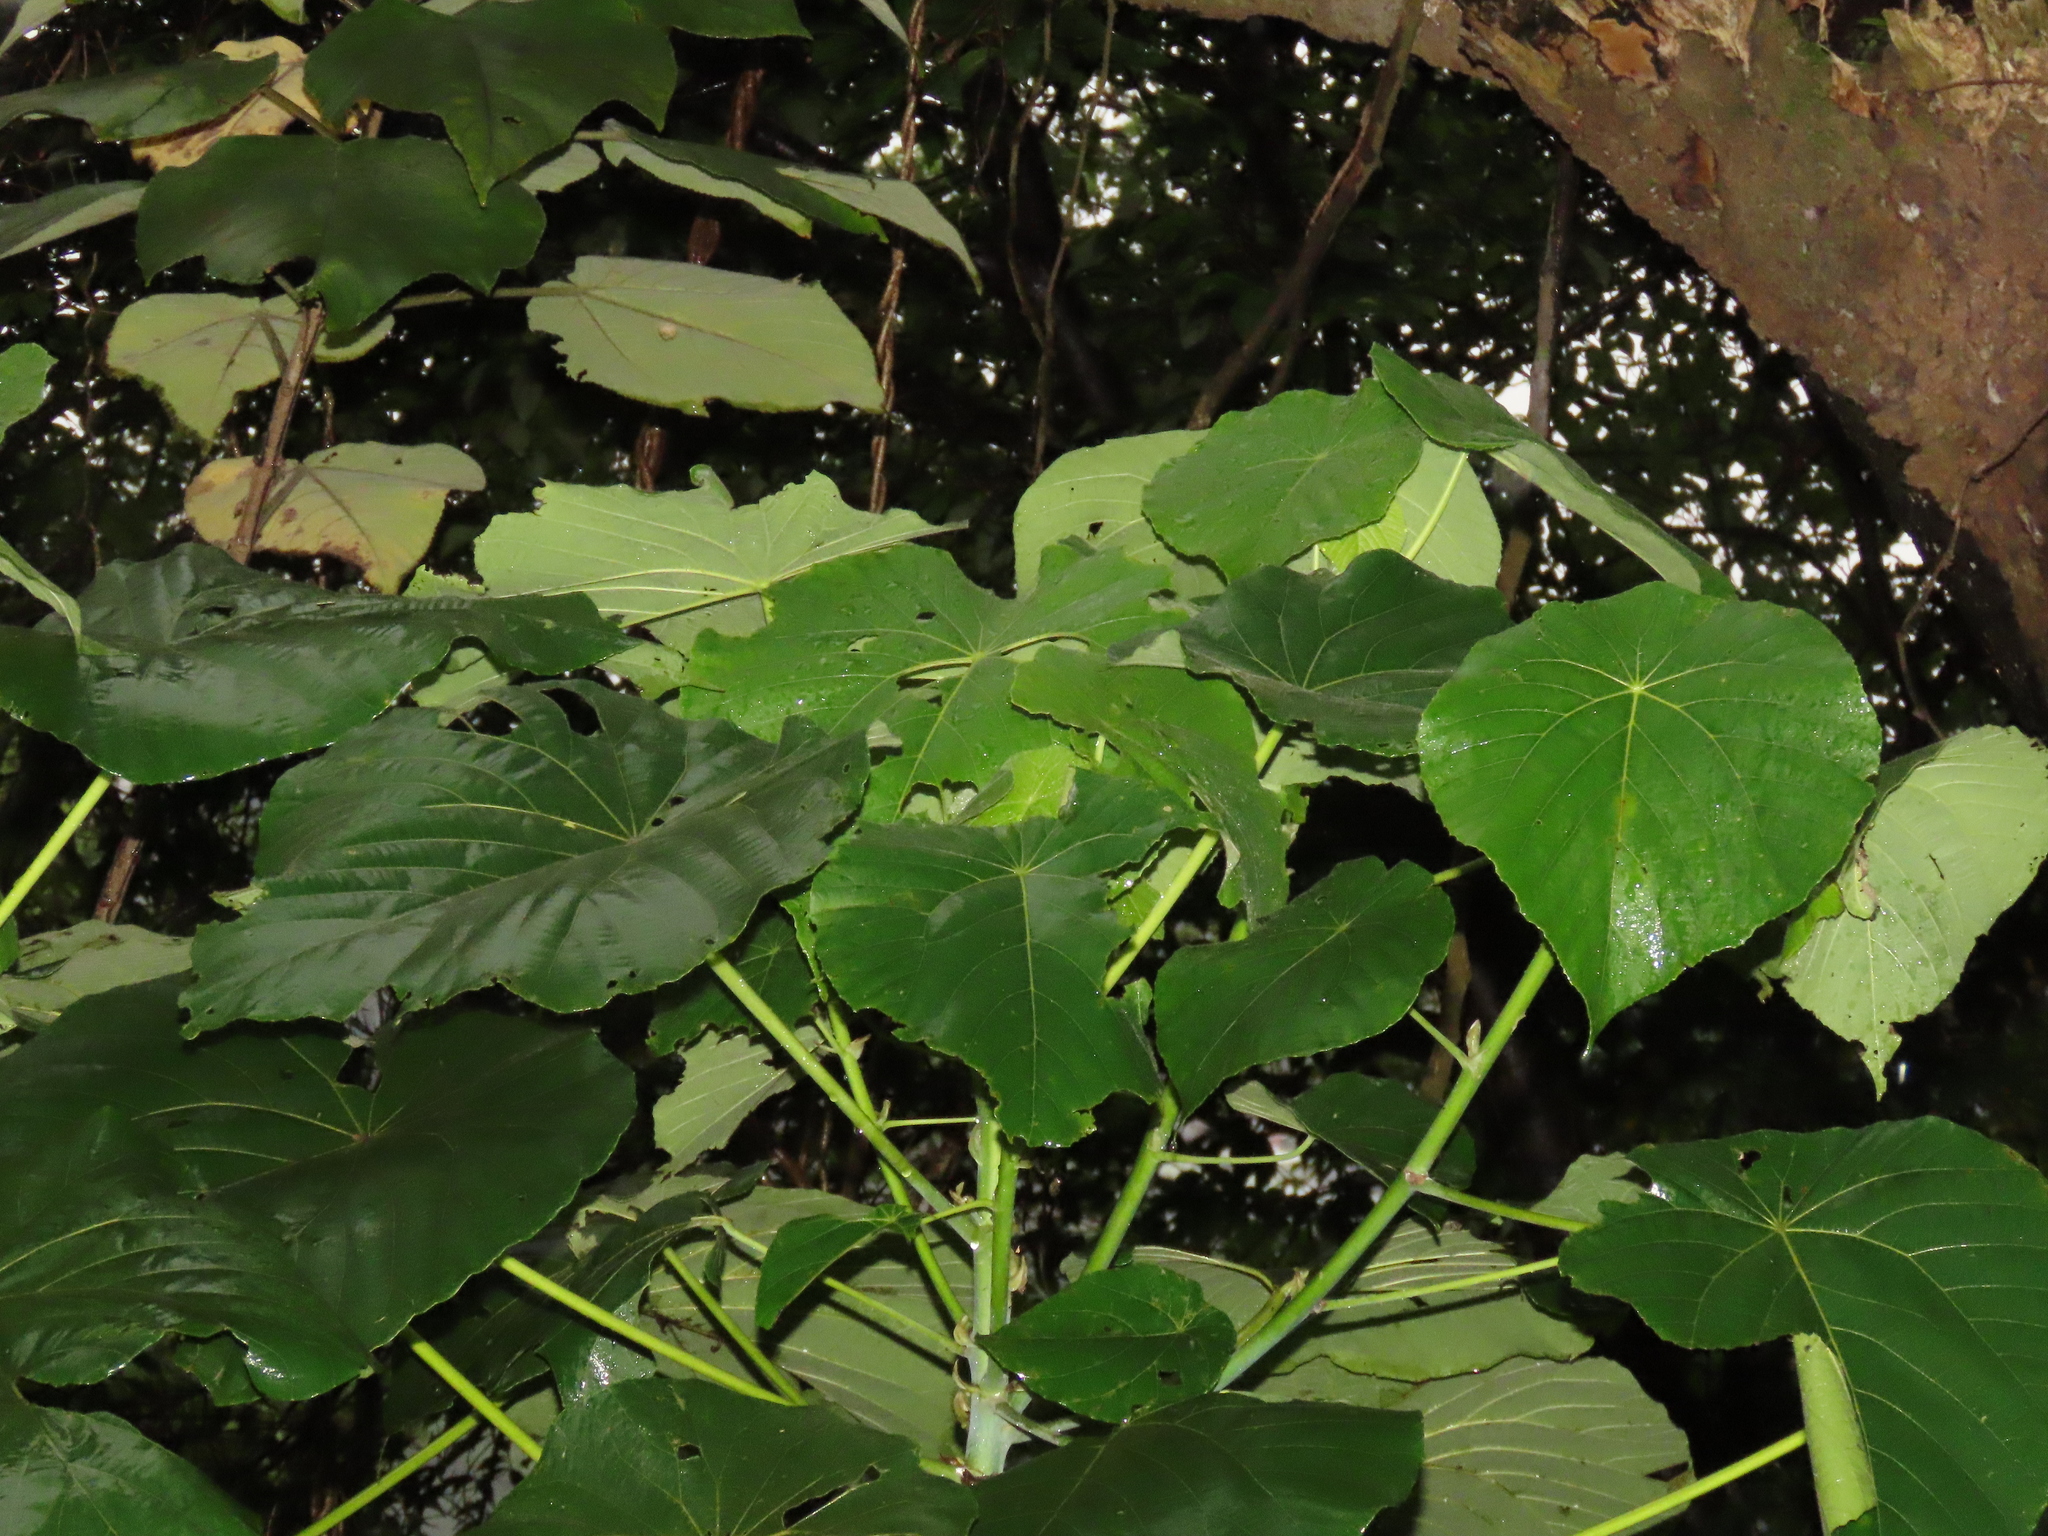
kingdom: Plantae
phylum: Tracheophyta
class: Magnoliopsida
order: Malpighiales
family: Euphorbiaceae
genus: Macaranga
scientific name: Macaranga tanarius
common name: Parasol leaf tree
